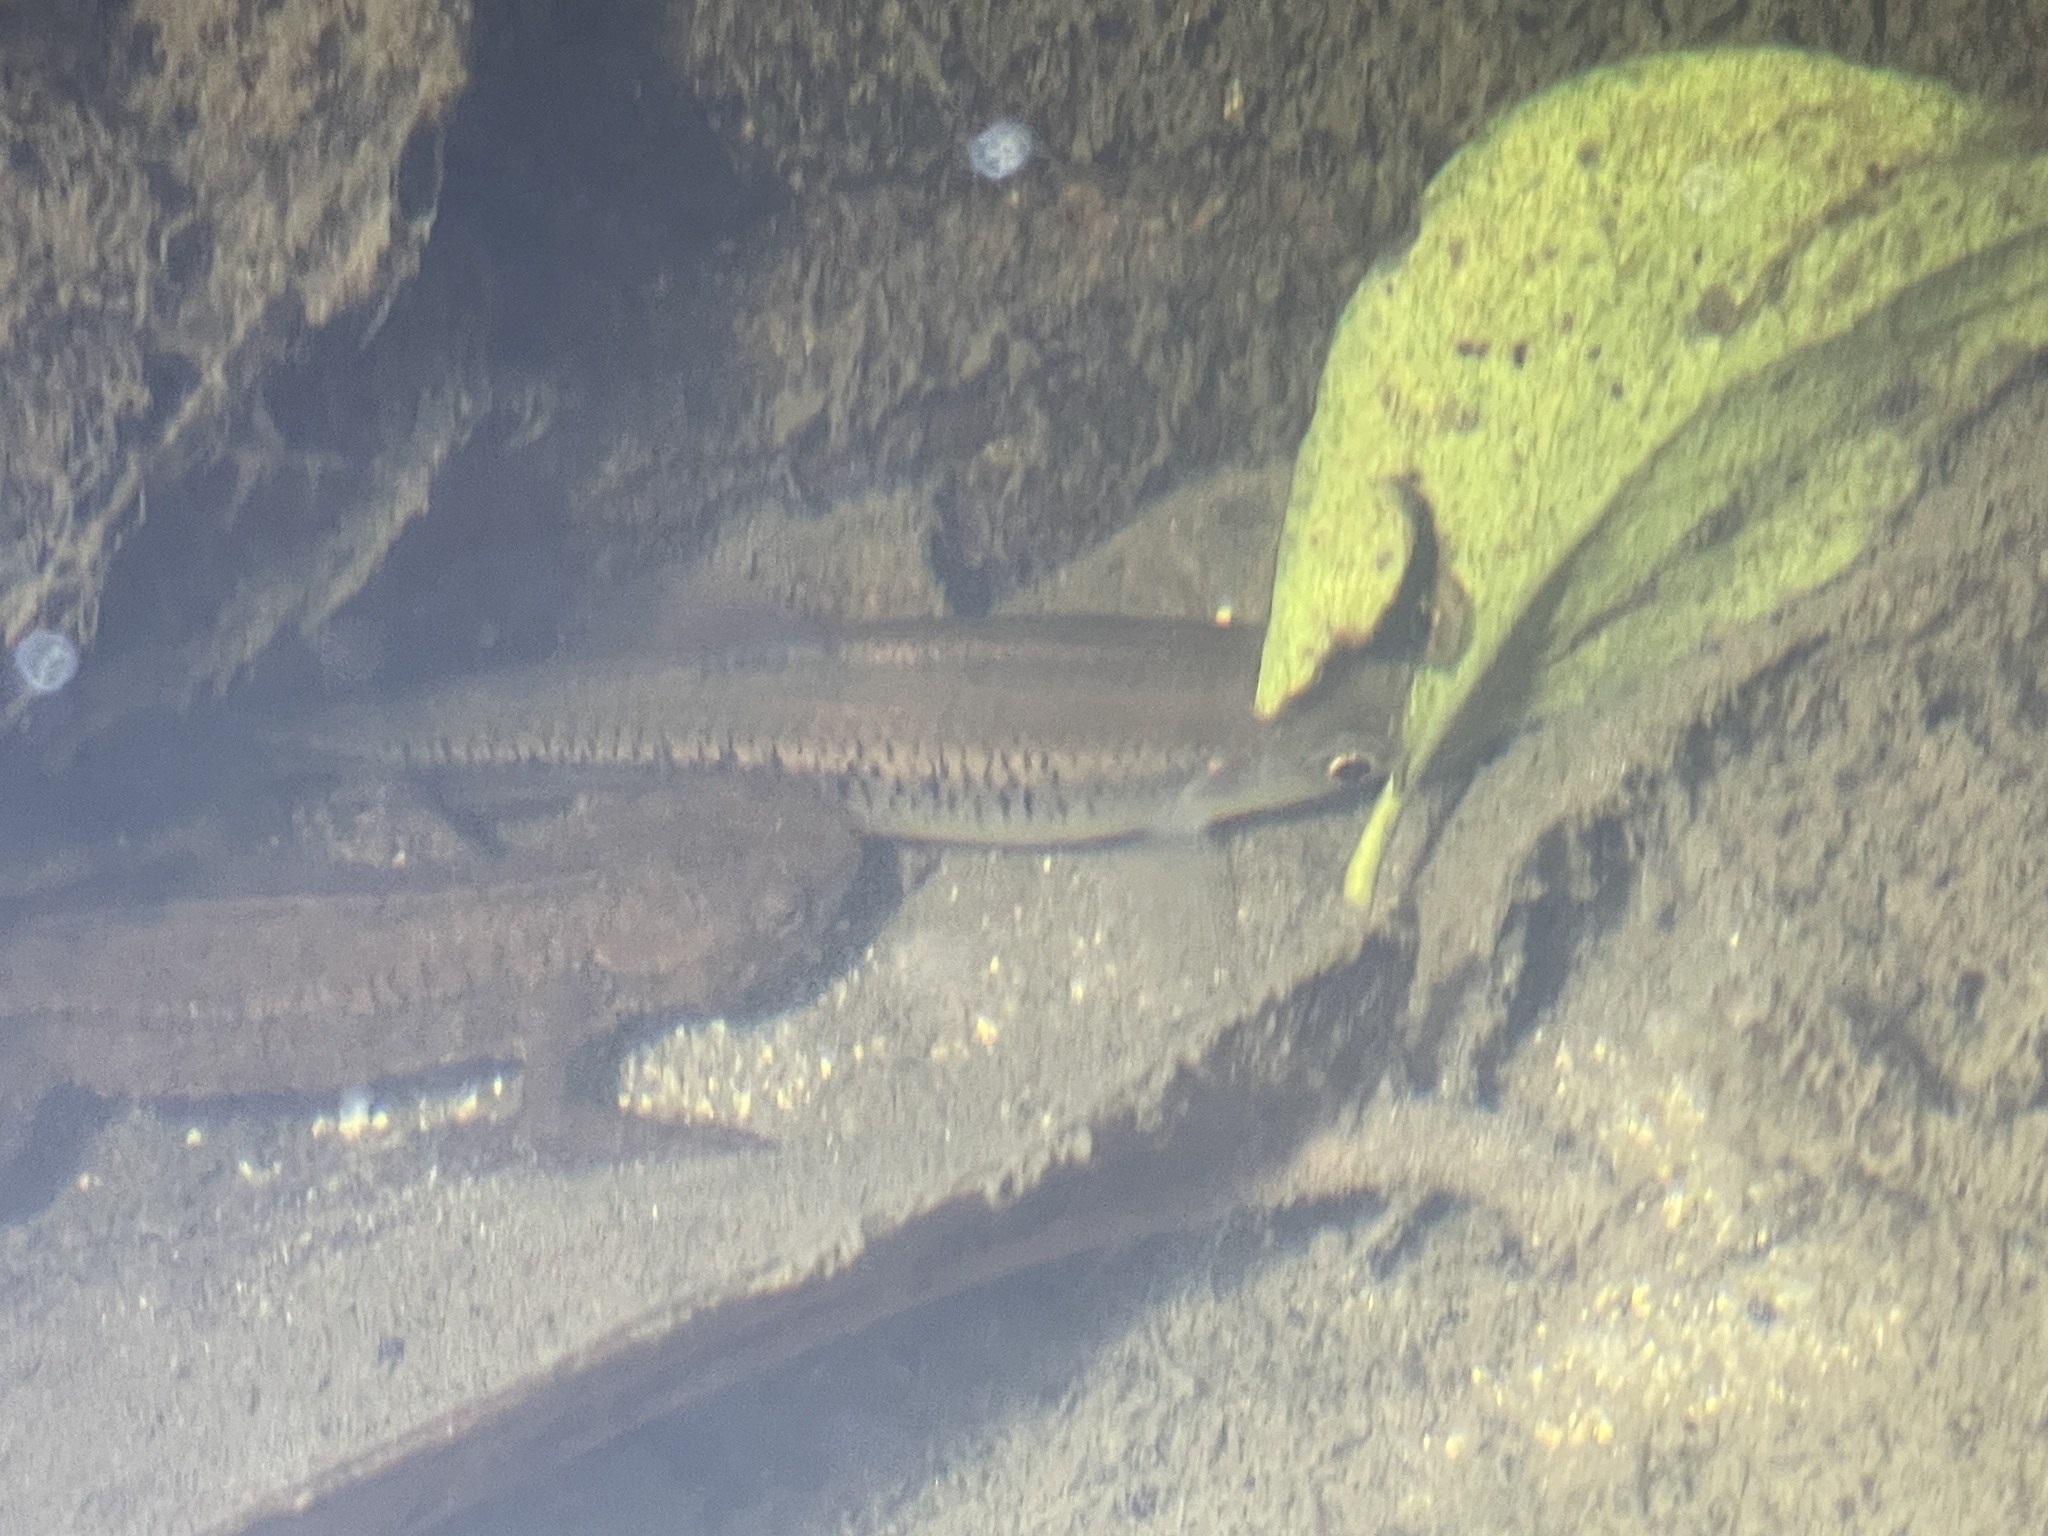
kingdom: Animalia
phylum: Chordata
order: Cypriniformes
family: Cyprinidae
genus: Parazacco
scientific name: Parazacco spilurus
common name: Predaceous chub
